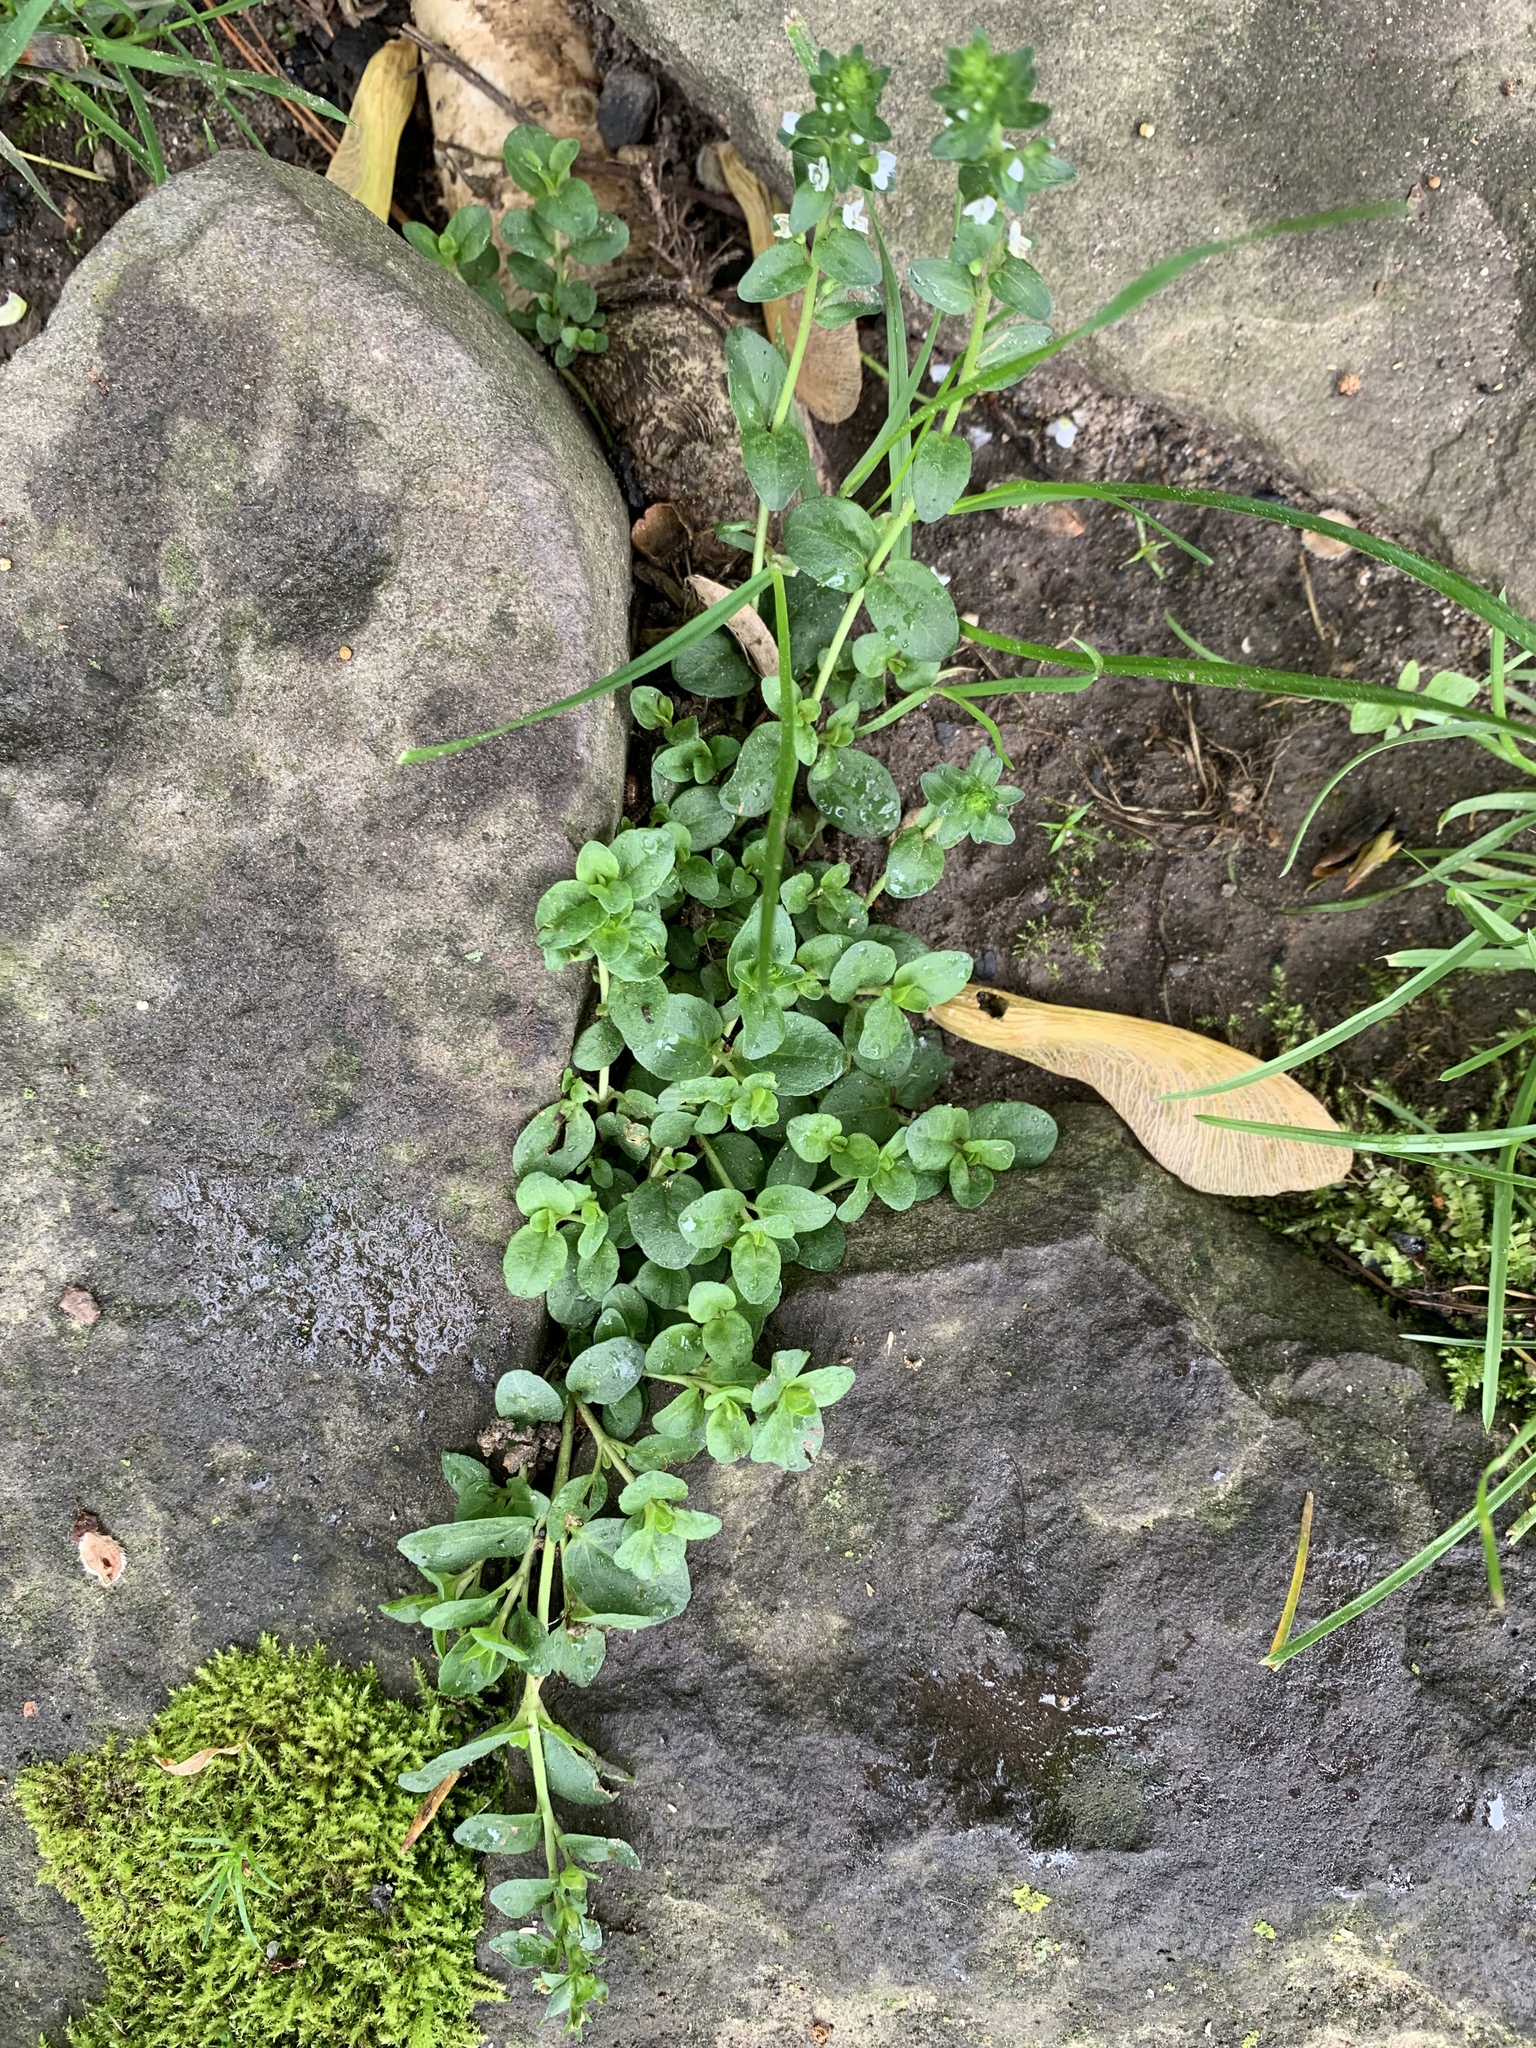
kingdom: Plantae
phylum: Tracheophyta
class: Magnoliopsida
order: Lamiales
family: Plantaginaceae
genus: Veronica
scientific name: Veronica serpyllifolia
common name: Thyme-leaved speedwell
